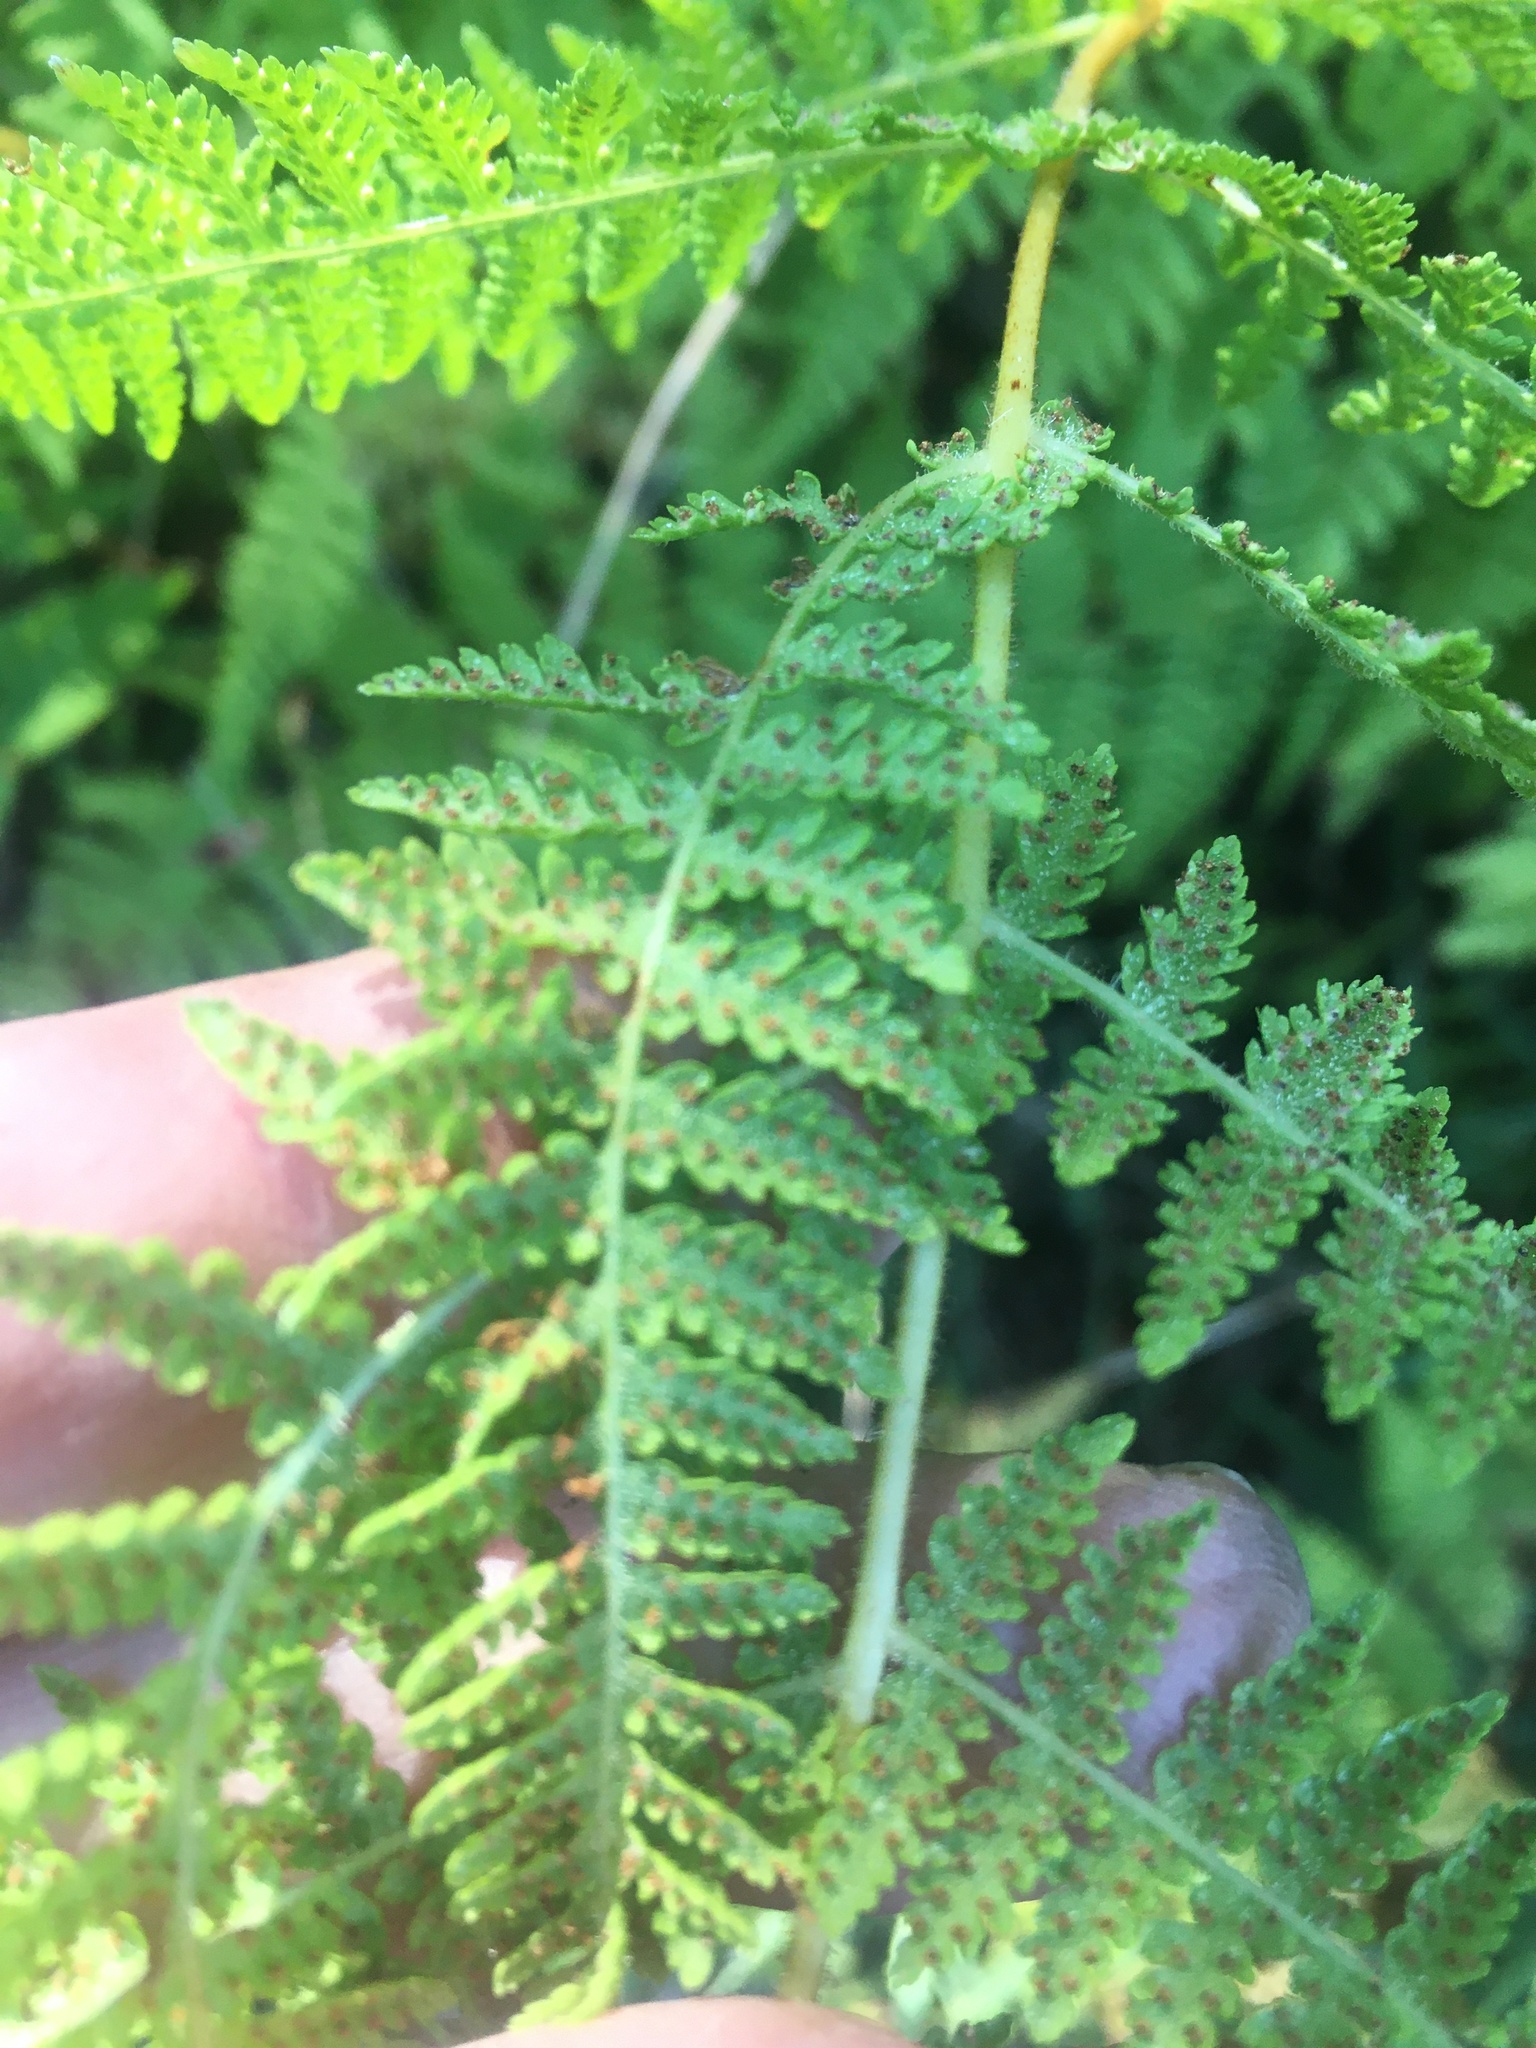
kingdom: Plantae
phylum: Tracheophyta
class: Polypodiopsida
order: Polypodiales
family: Dennstaedtiaceae
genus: Sitobolium
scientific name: Sitobolium punctilobum
